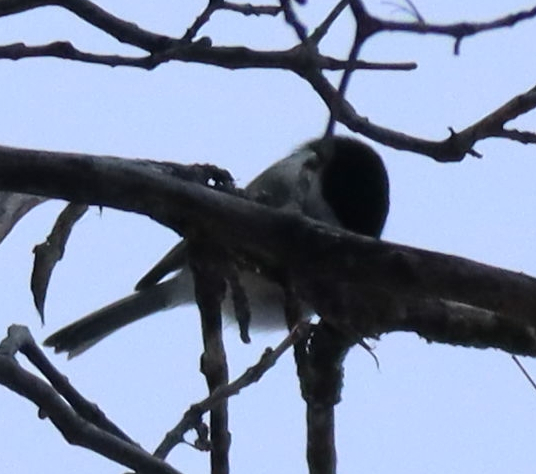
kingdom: Animalia
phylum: Chordata
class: Aves
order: Passeriformes
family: Paridae
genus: Poecile
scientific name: Poecile atricapillus
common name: Black-capped chickadee
